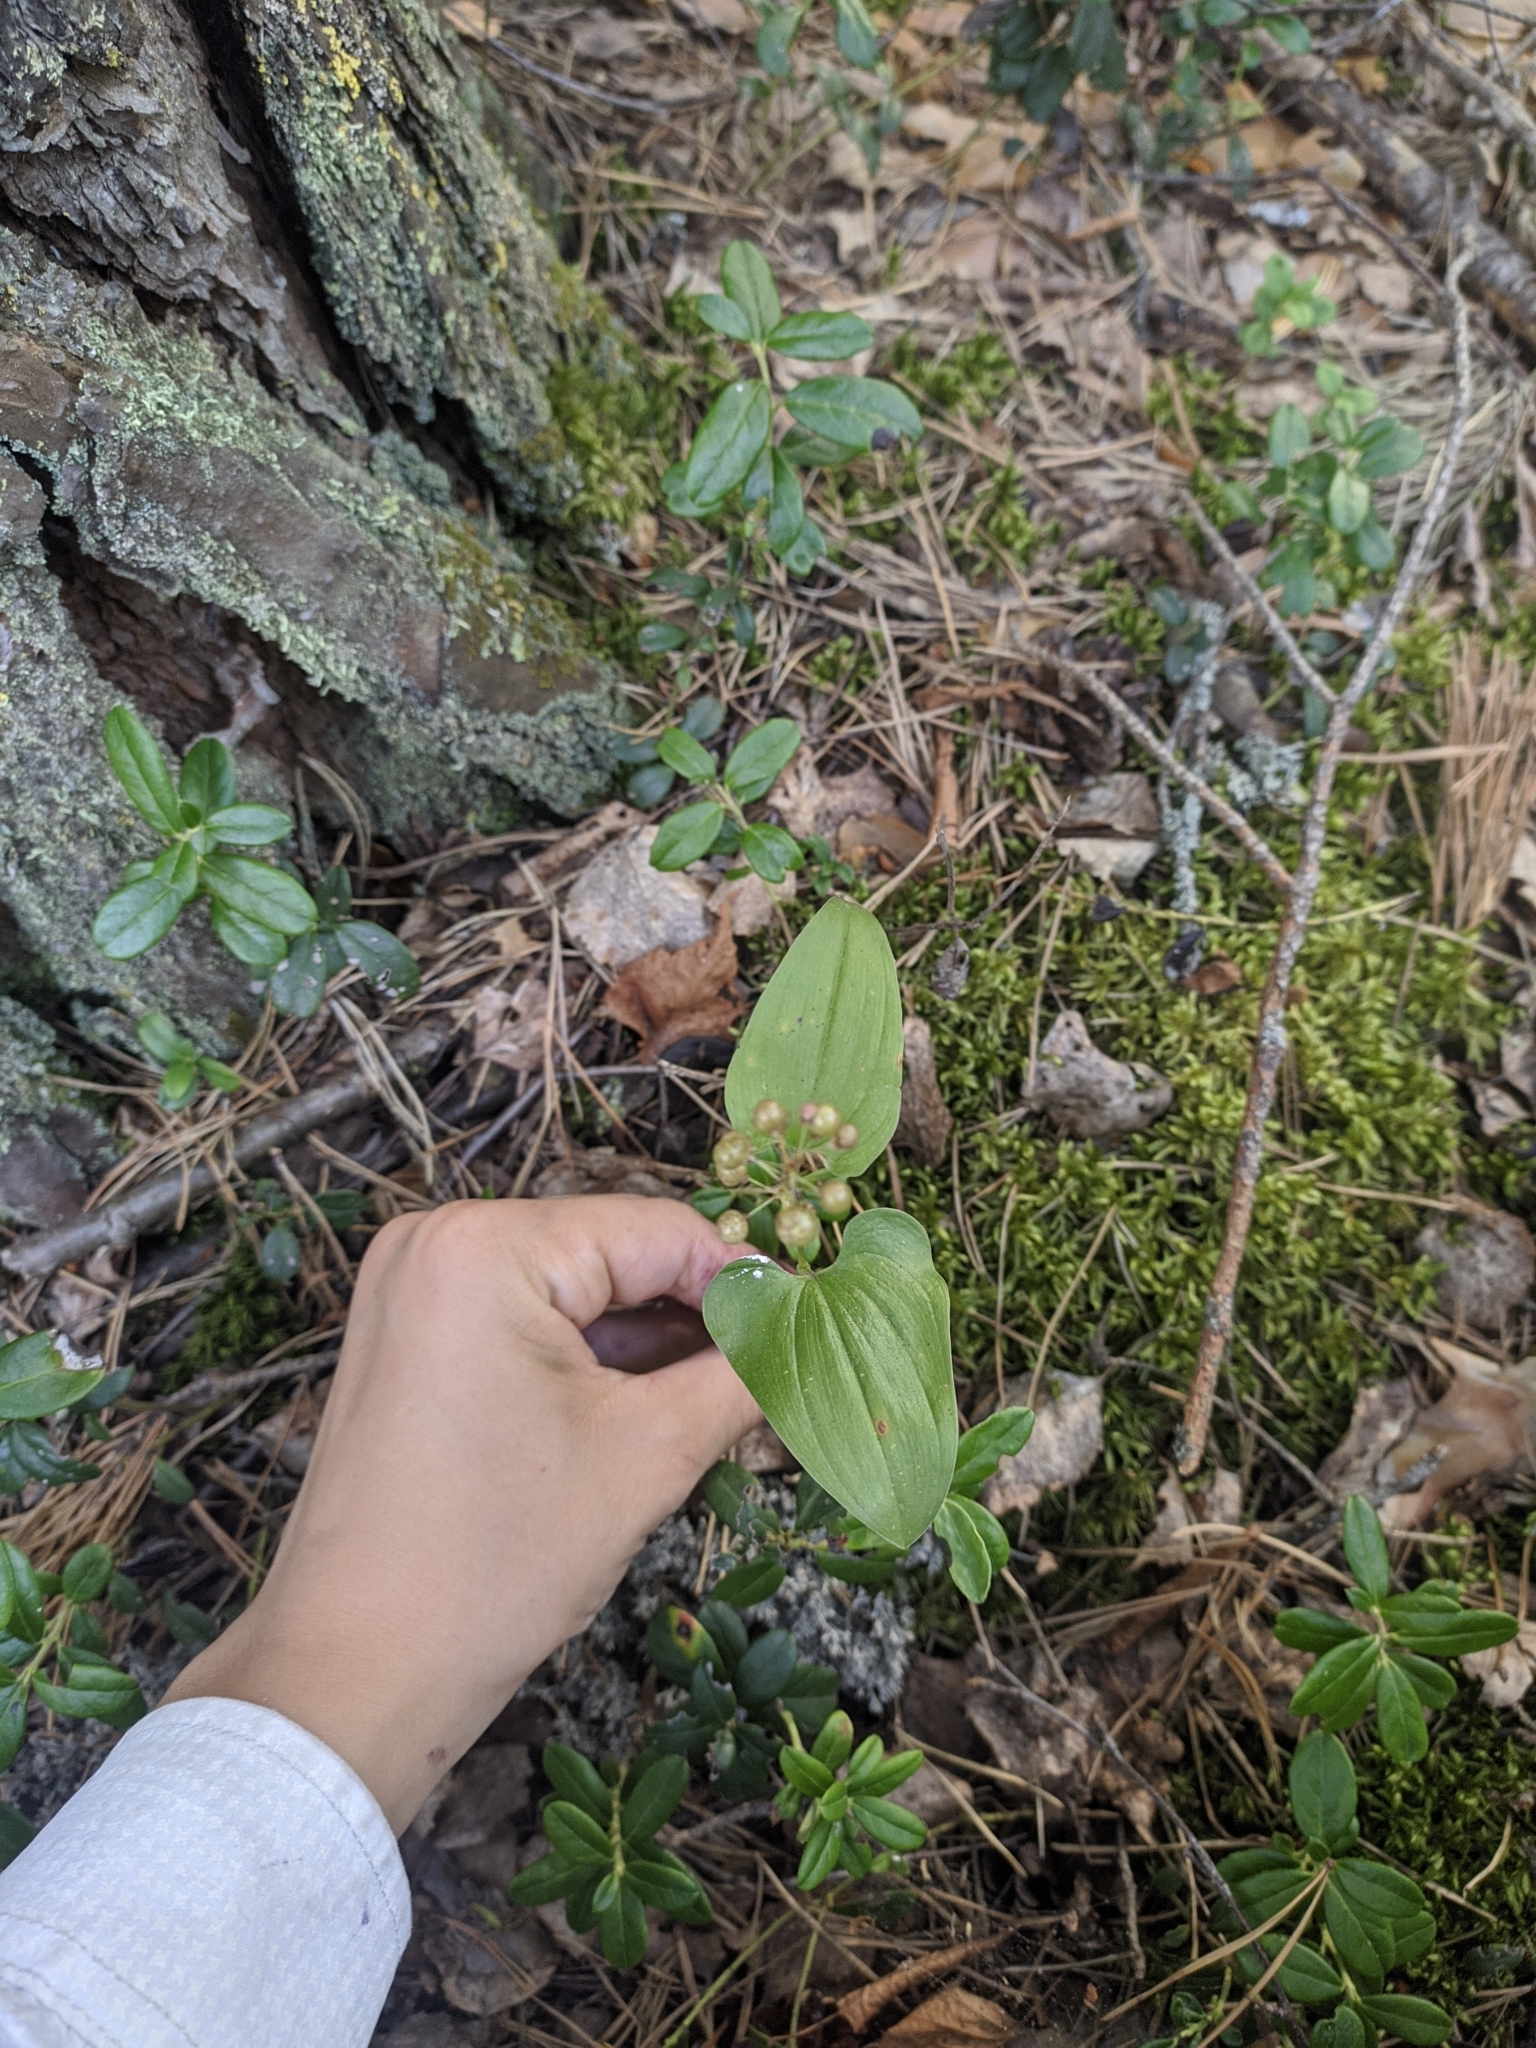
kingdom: Plantae
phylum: Tracheophyta
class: Liliopsida
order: Asparagales
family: Asparagaceae
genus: Maianthemum
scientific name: Maianthemum bifolium
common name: May lily
